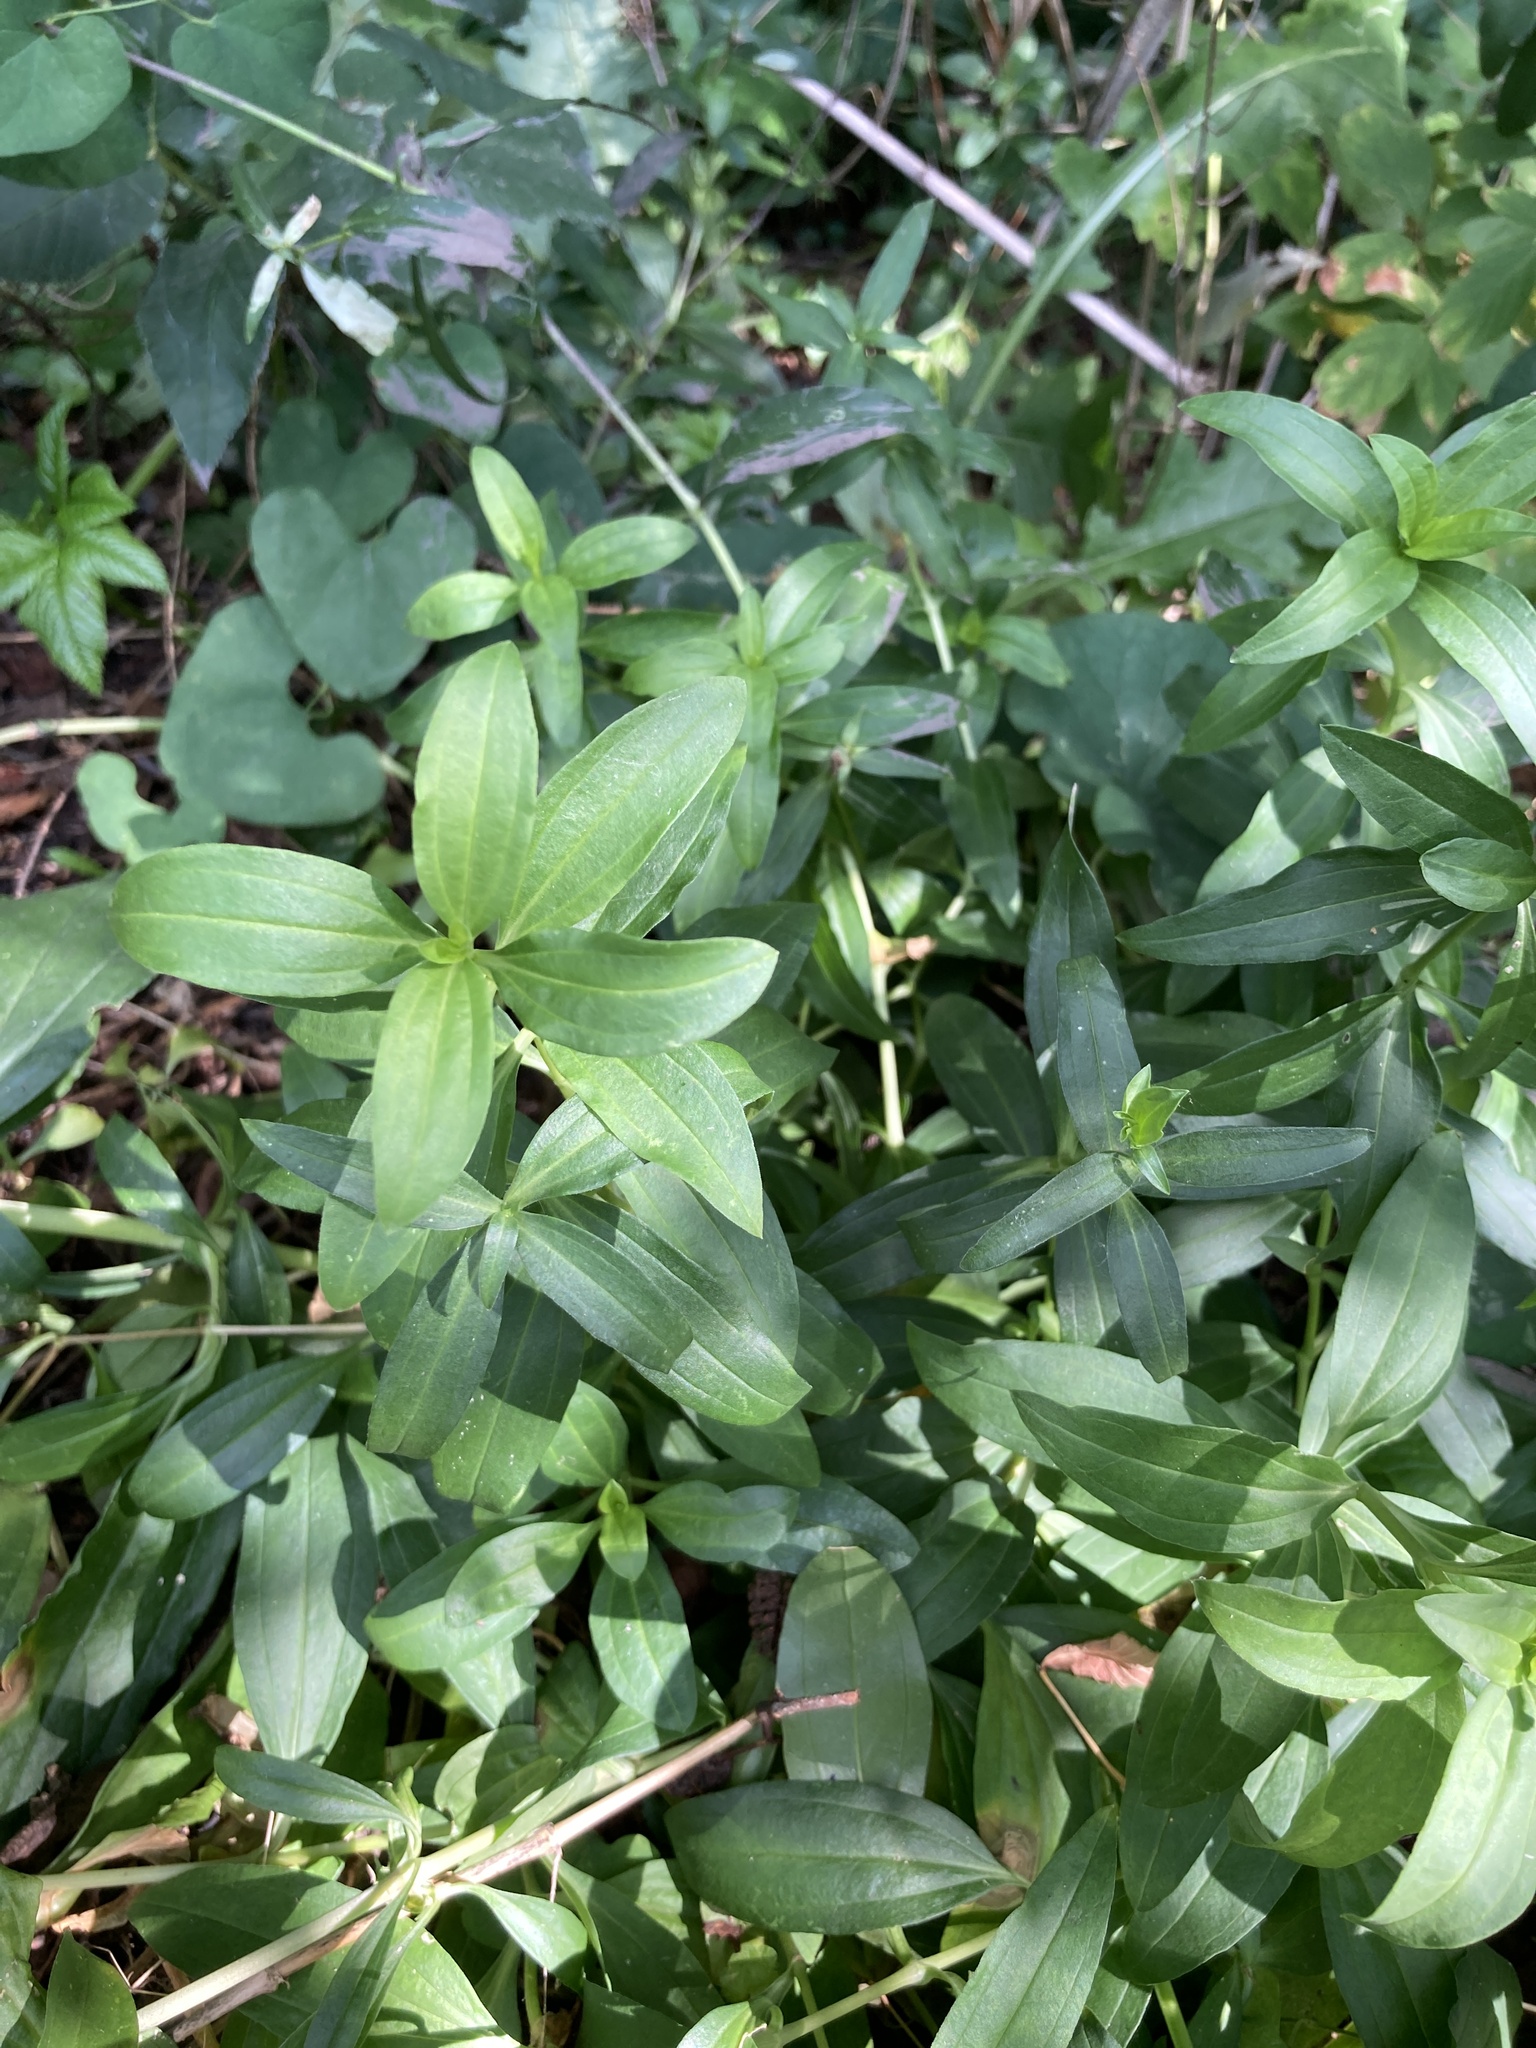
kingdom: Plantae
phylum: Tracheophyta
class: Magnoliopsida
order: Caryophyllales
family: Caryophyllaceae
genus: Saponaria
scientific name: Saponaria officinalis
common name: Soapwort
